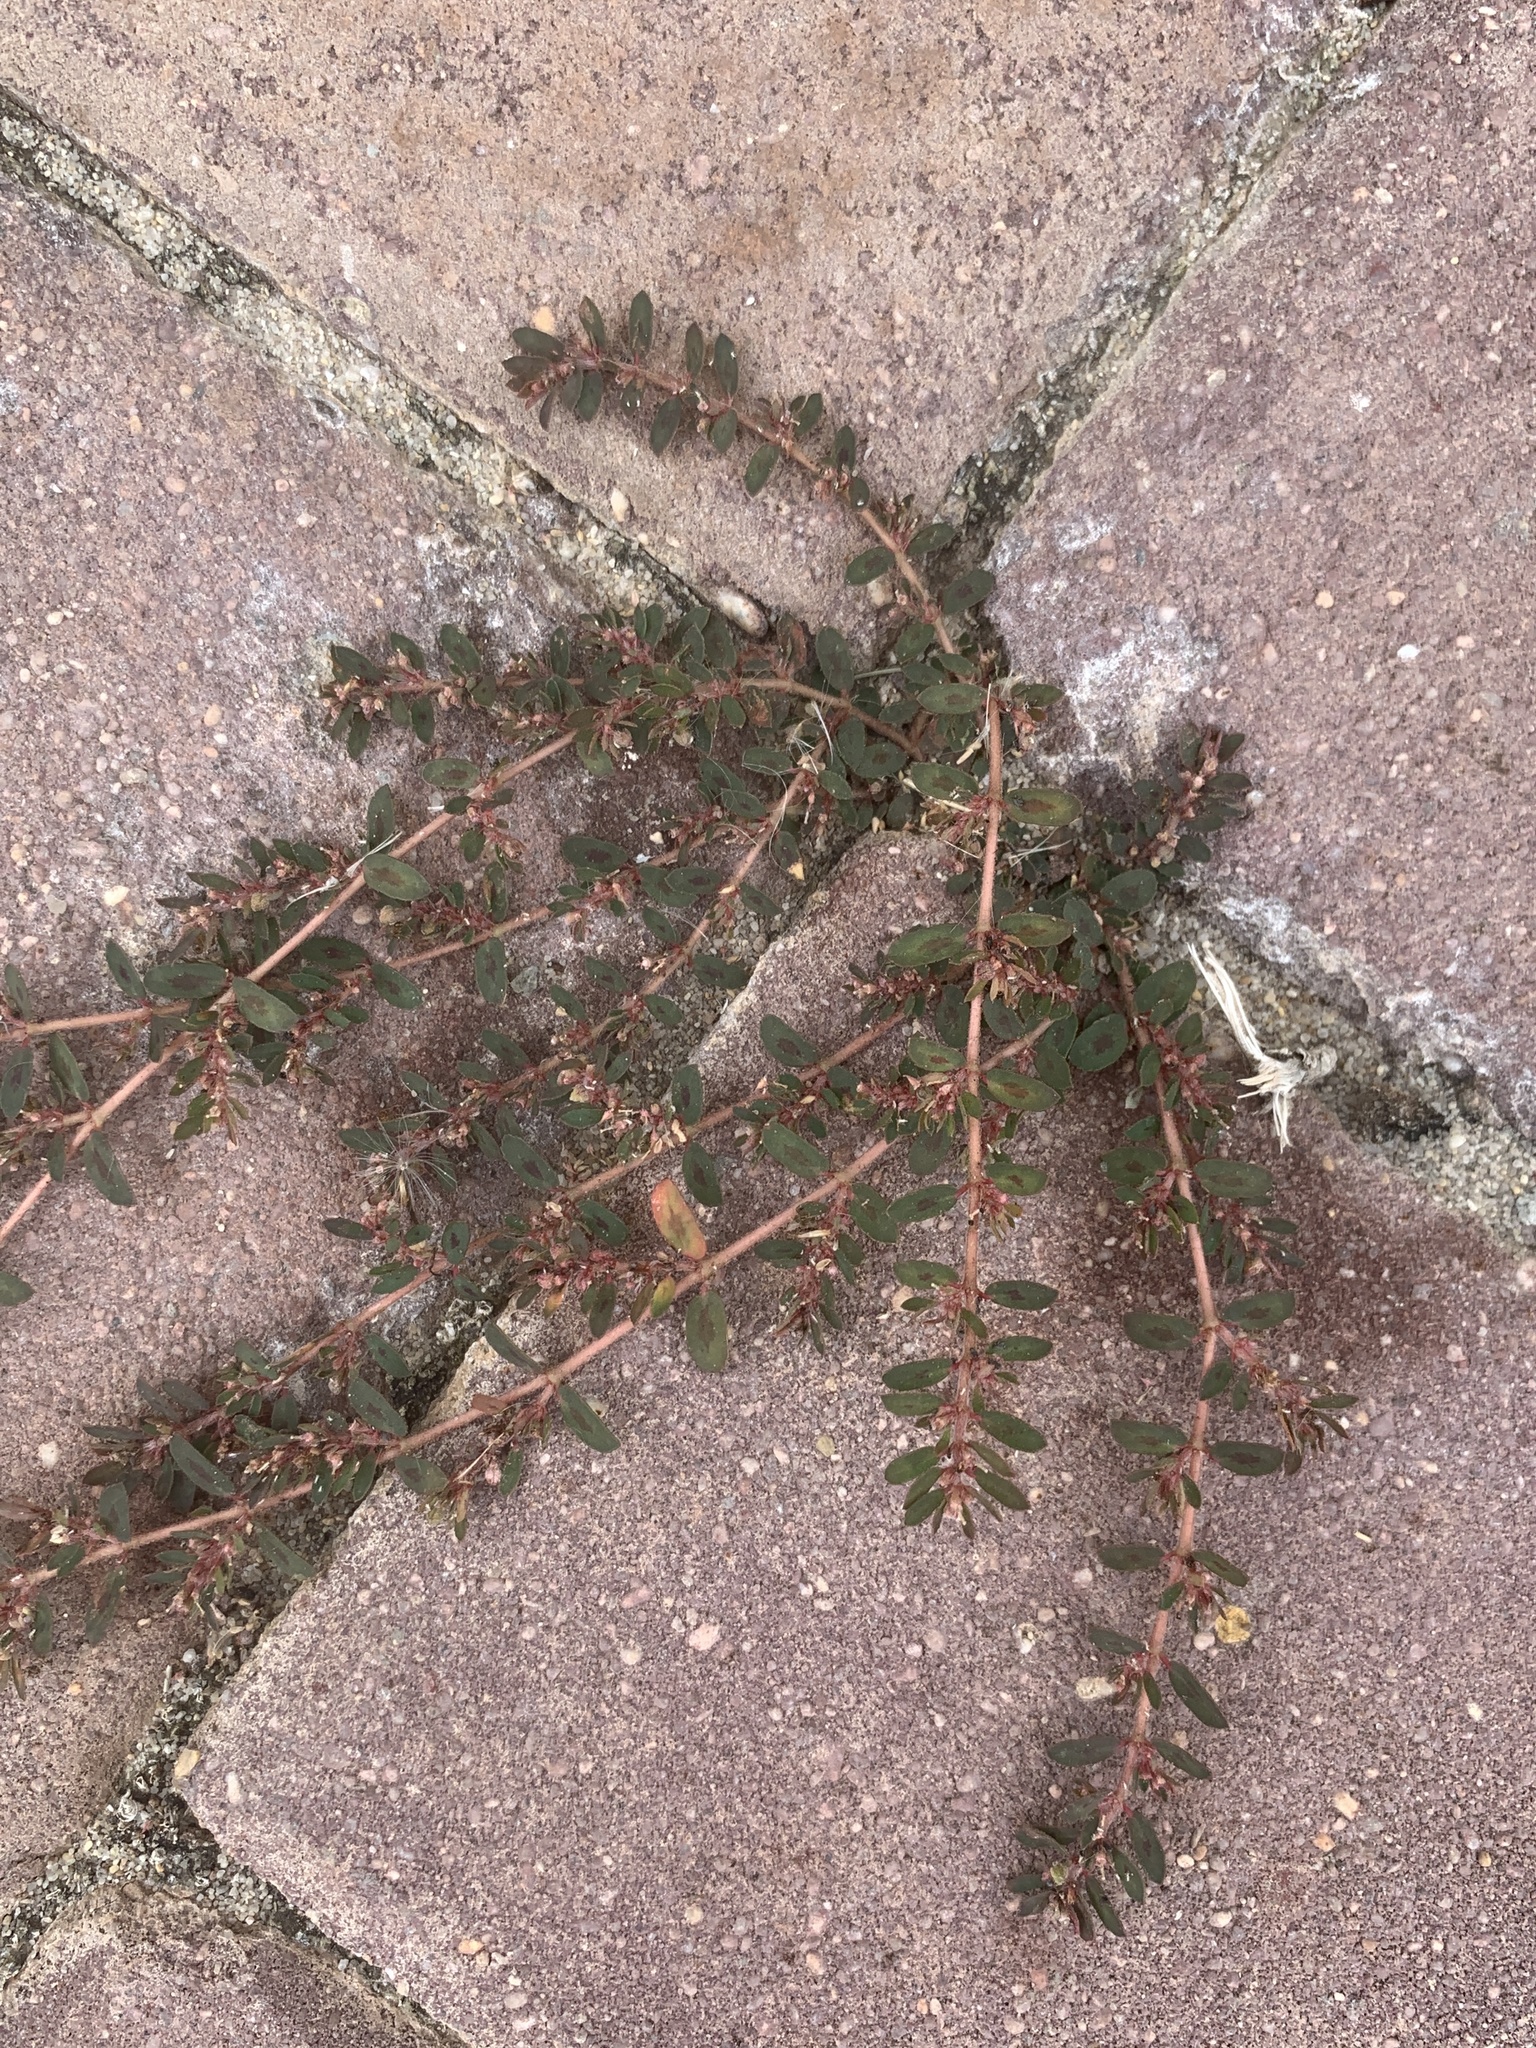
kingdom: Plantae
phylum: Tracheophyta
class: Magnoliopsida
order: Malpighiales
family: Euphorbiaceae
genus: Euphorbia
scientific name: Euphorbia maculata
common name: Spotted spurge
